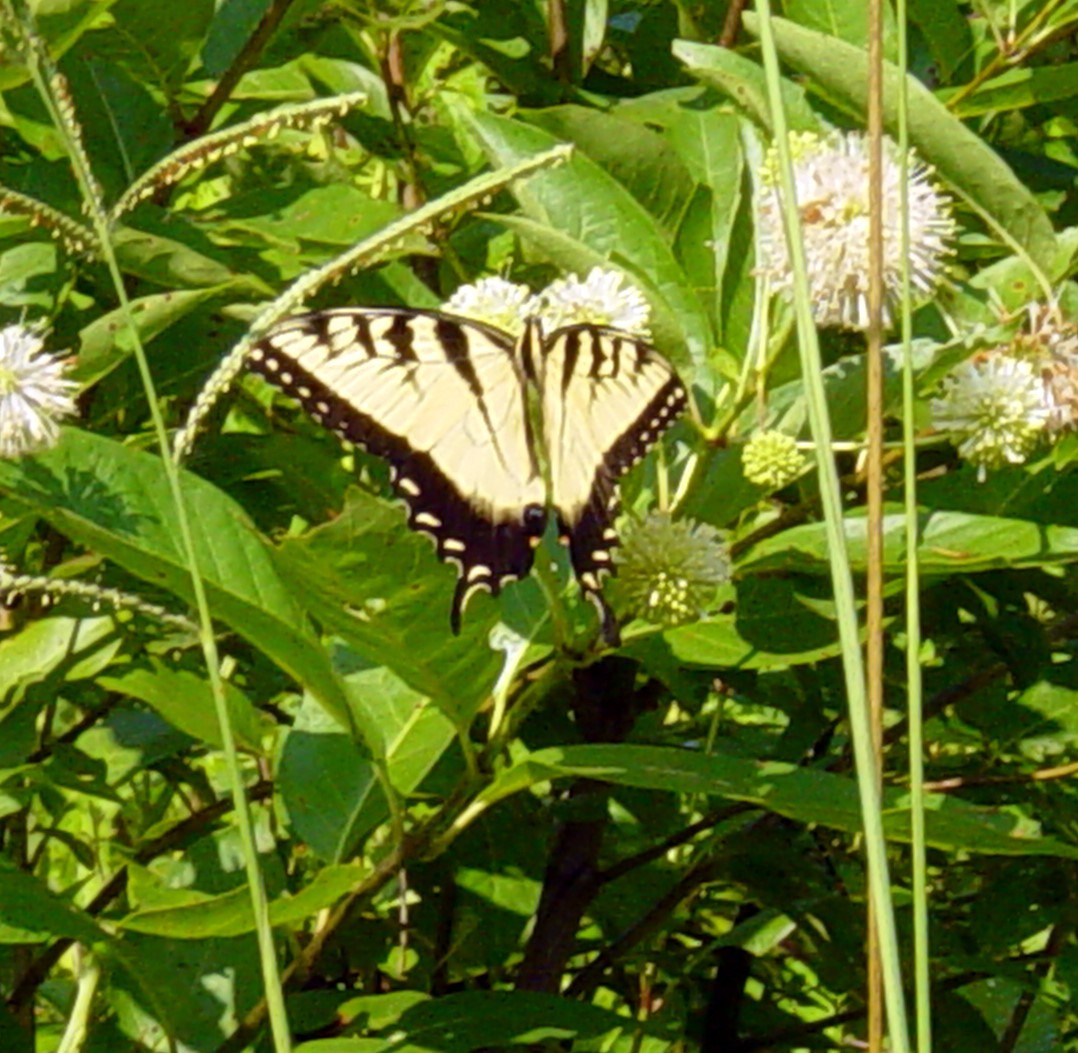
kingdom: Animalia
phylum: Arthropoda
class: Insecta
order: Lepidoptera
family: Papilionidae
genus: Papilio
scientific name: Papilio glaucus
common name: Tiger swallowtail
